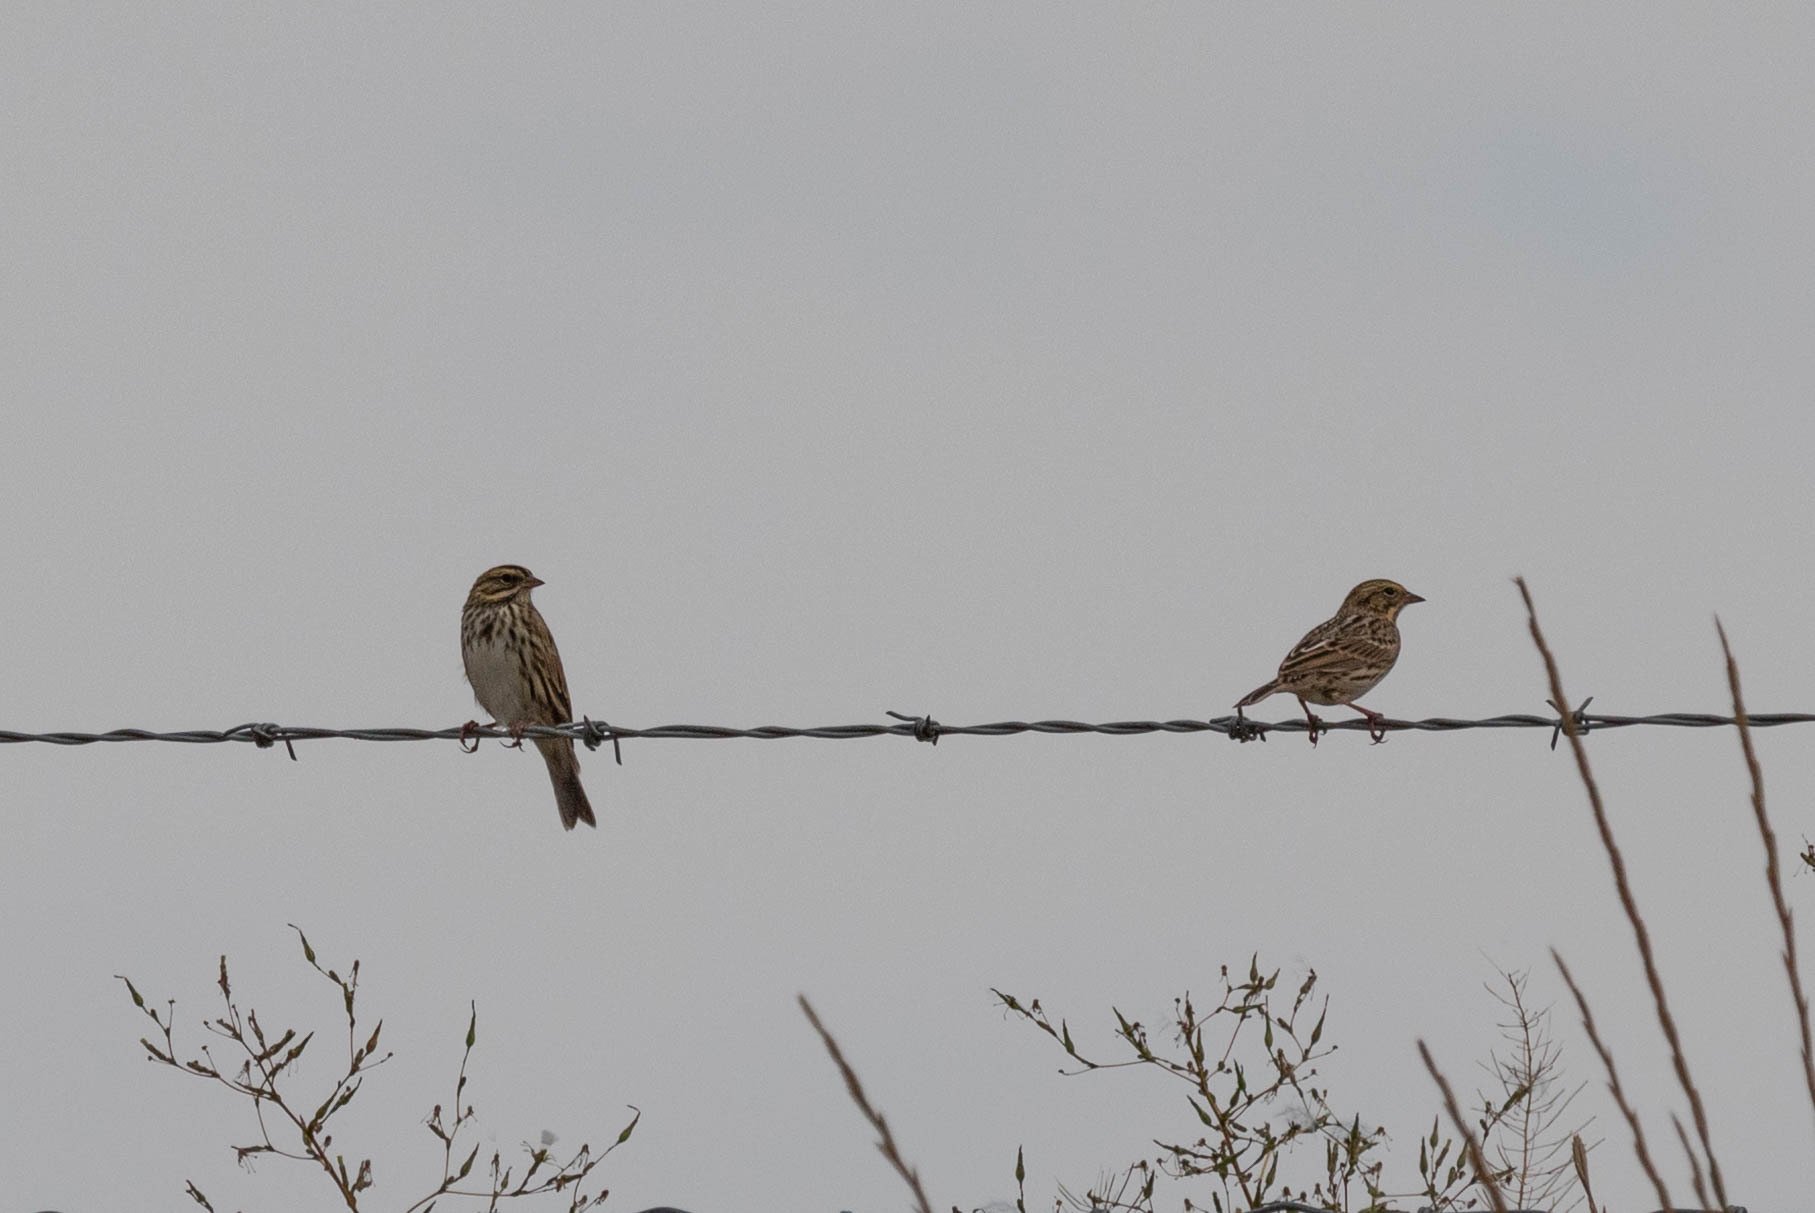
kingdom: Animalia
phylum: Chordata
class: Aves
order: Passeriformes
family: Passerellidae
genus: Passerculus
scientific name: Passerculus sandwichensis
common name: Savannah sparrow
